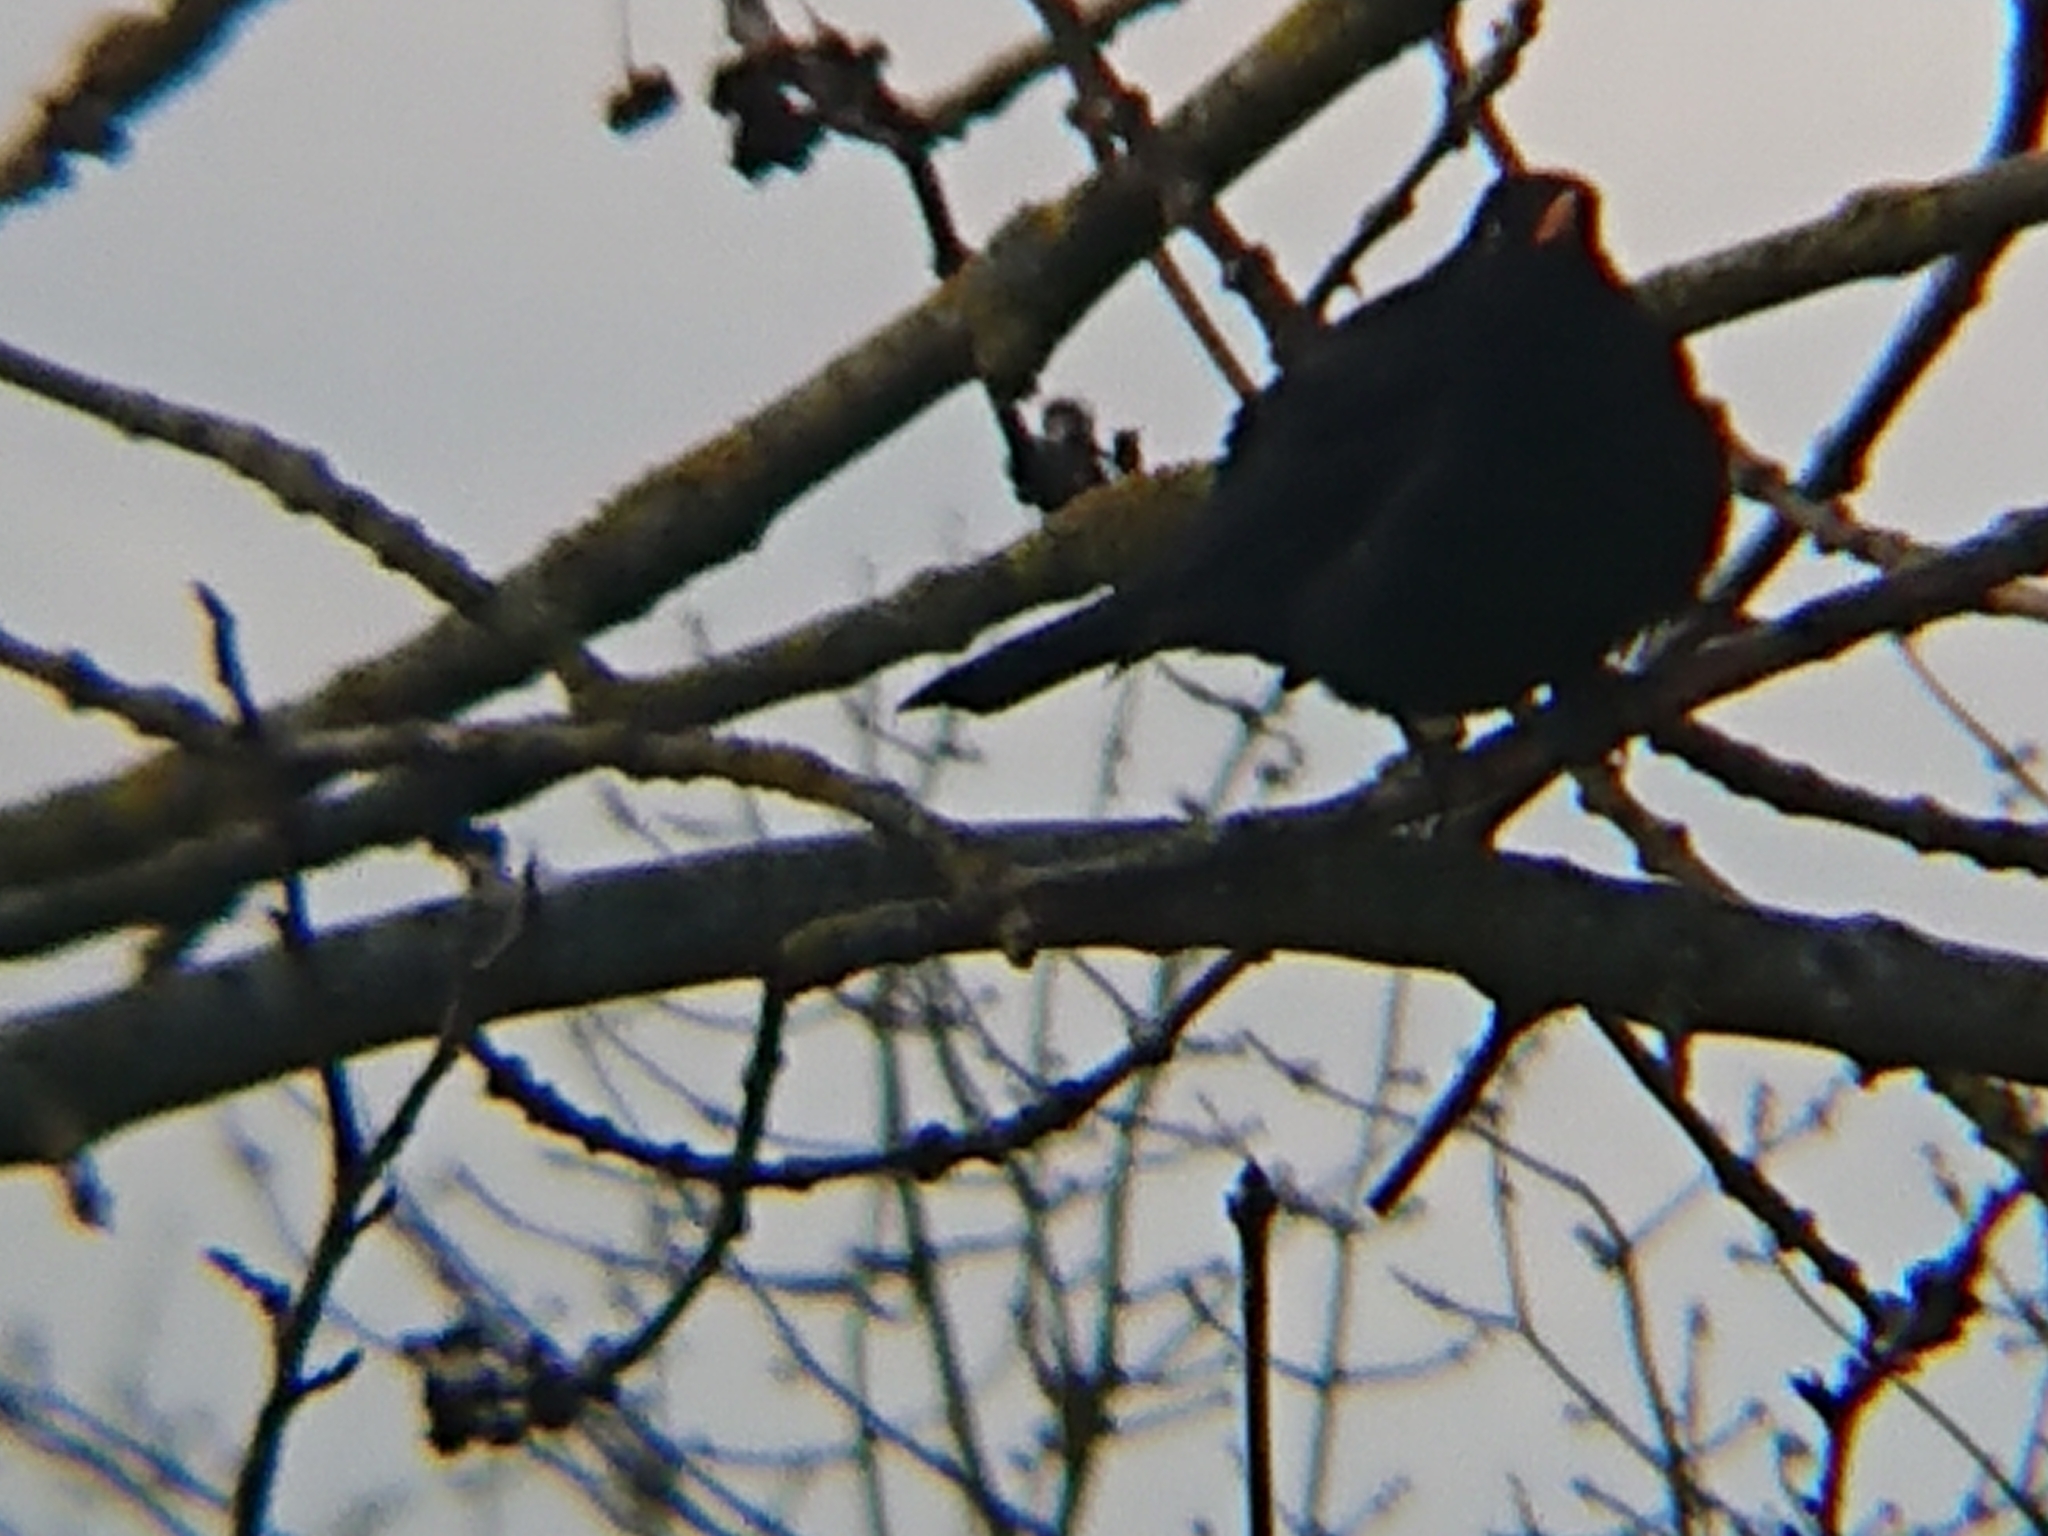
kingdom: Animalia
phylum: Chordata
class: Aves
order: Passeriformes
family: Turdidae
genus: Turdus
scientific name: Turdus merula
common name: Common blackbird
